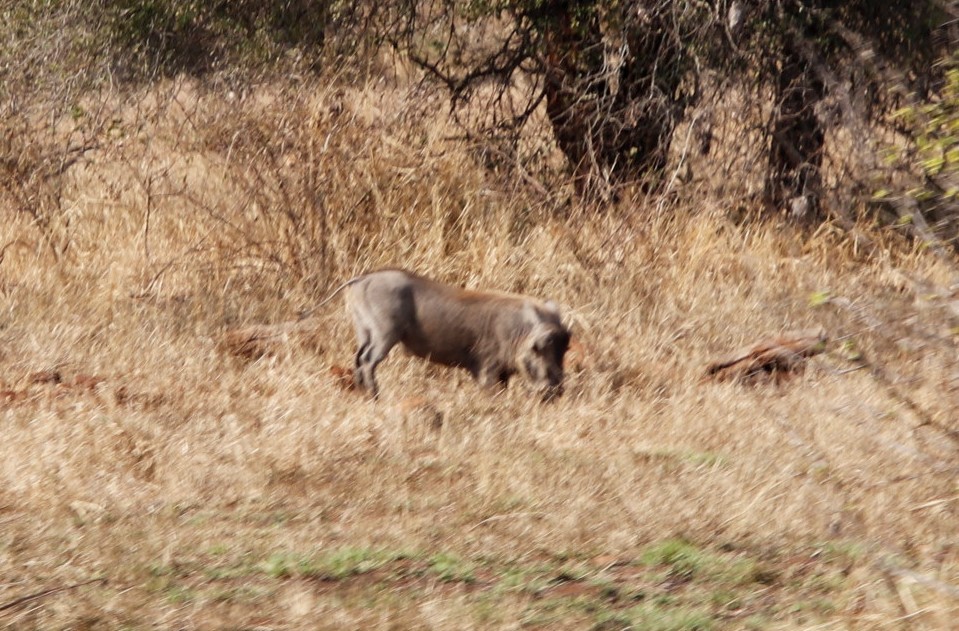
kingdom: Animalia
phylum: Chordata
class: Mammalia
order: Artiodactyla
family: Suidae
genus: Phacochoerus
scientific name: Phacochoerus africanus
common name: Common warthog
